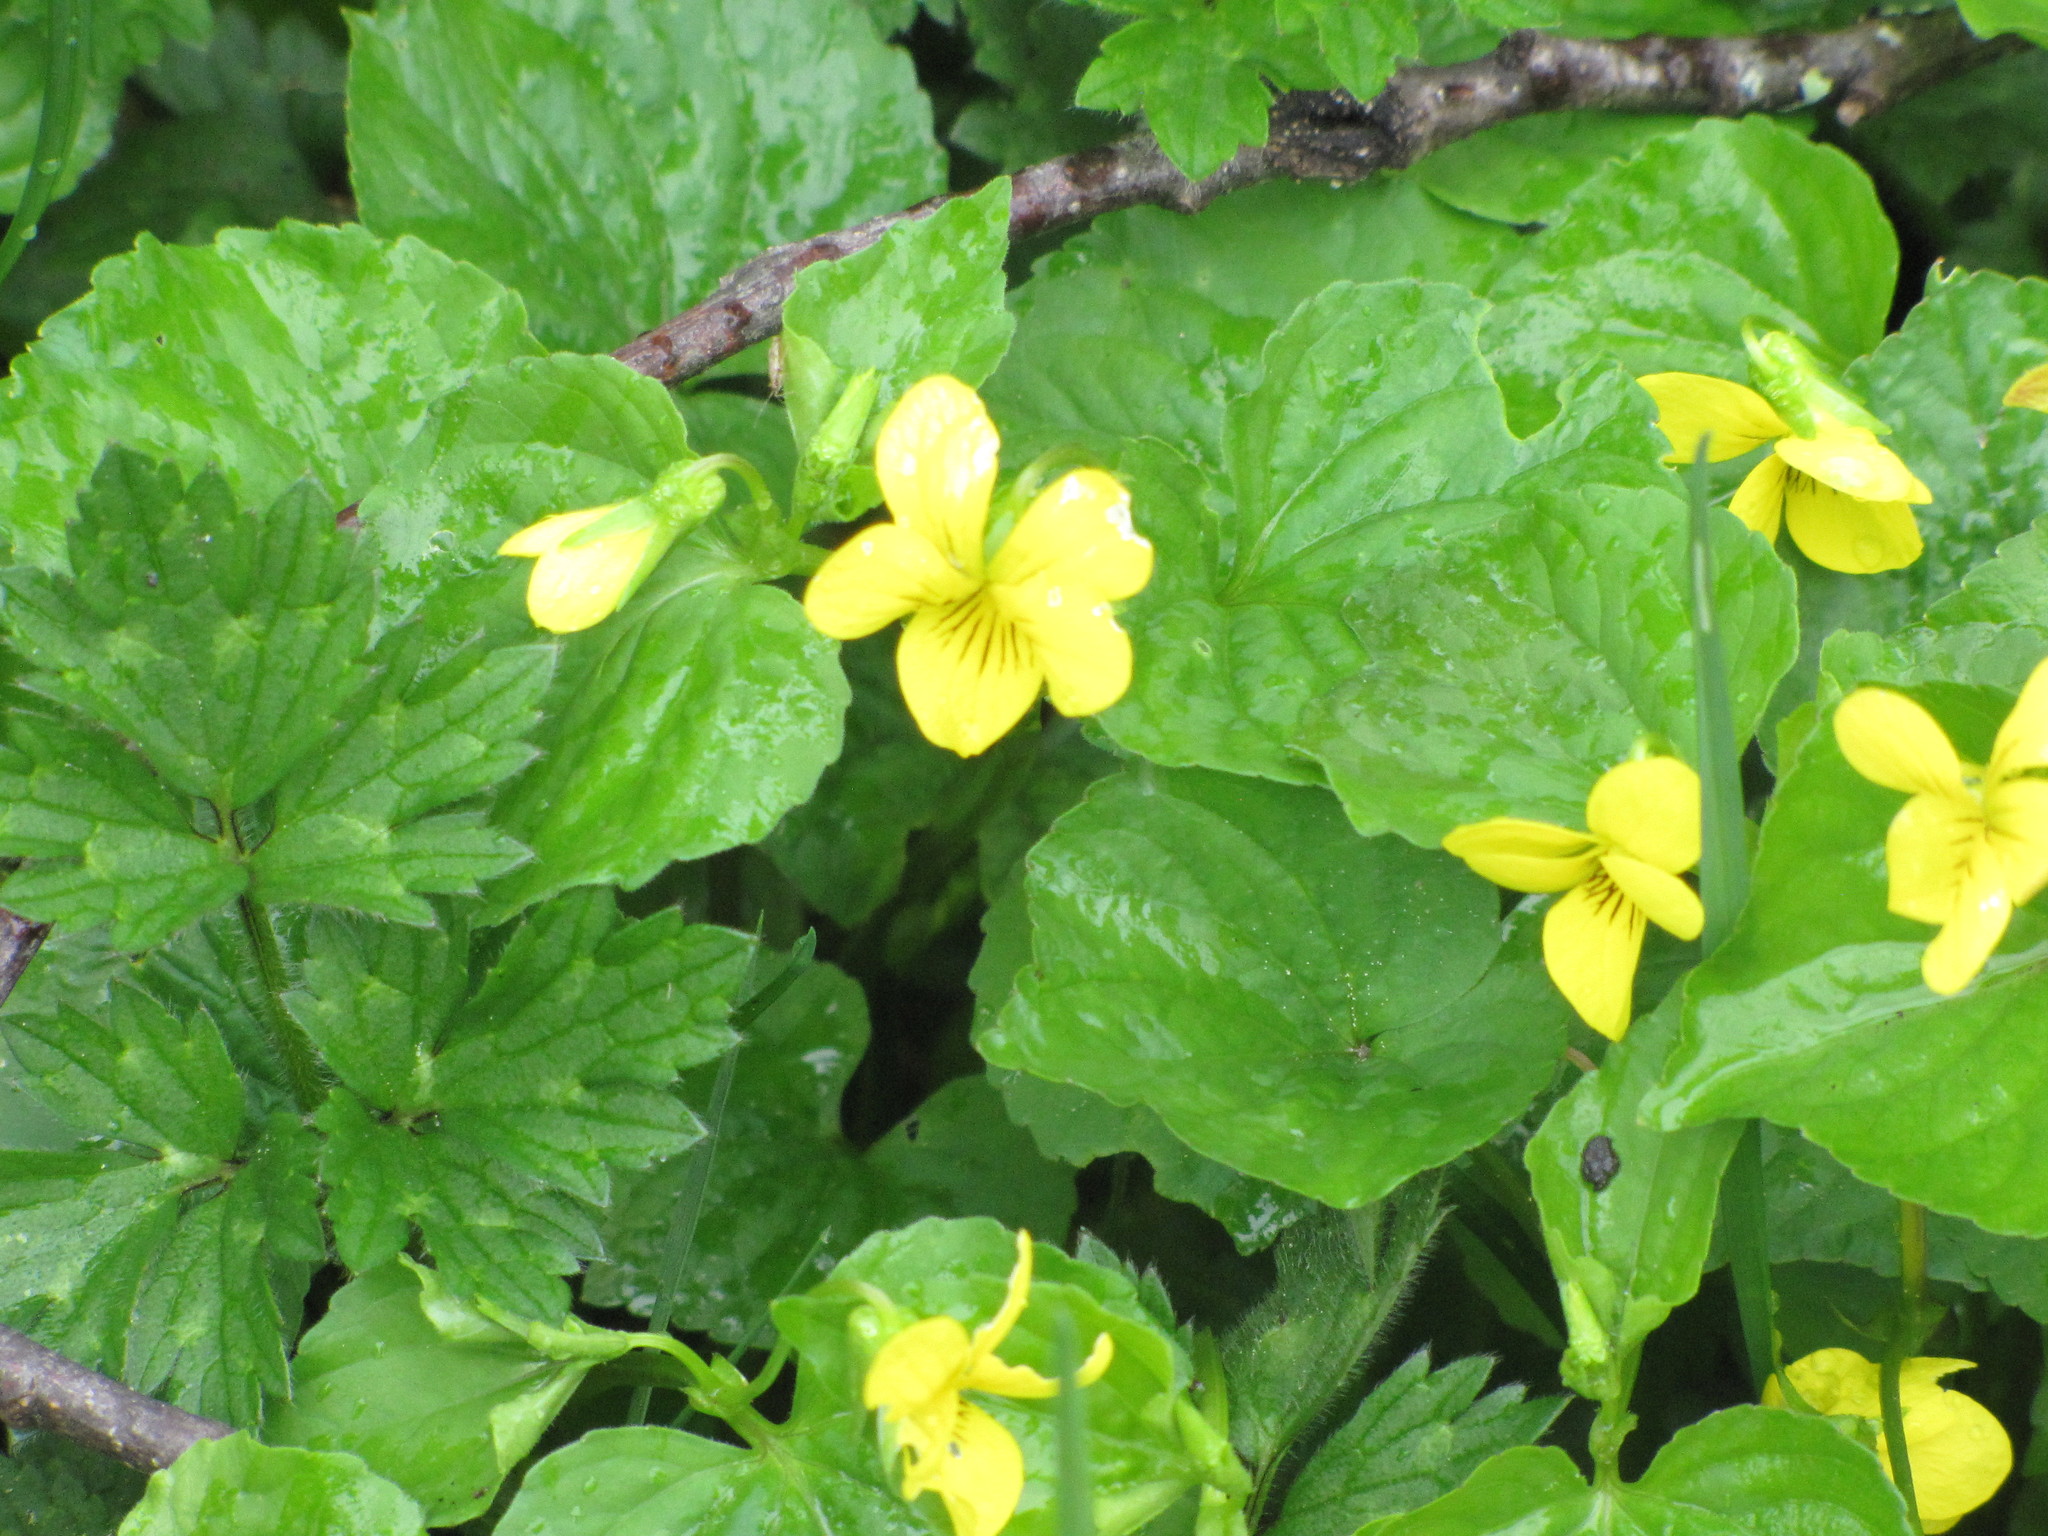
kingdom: Plantae
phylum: Tracheophyta
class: Magnoliopsida
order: Malpighiales
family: Violaceae
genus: Viola
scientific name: Viola glabella
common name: Stream violet
